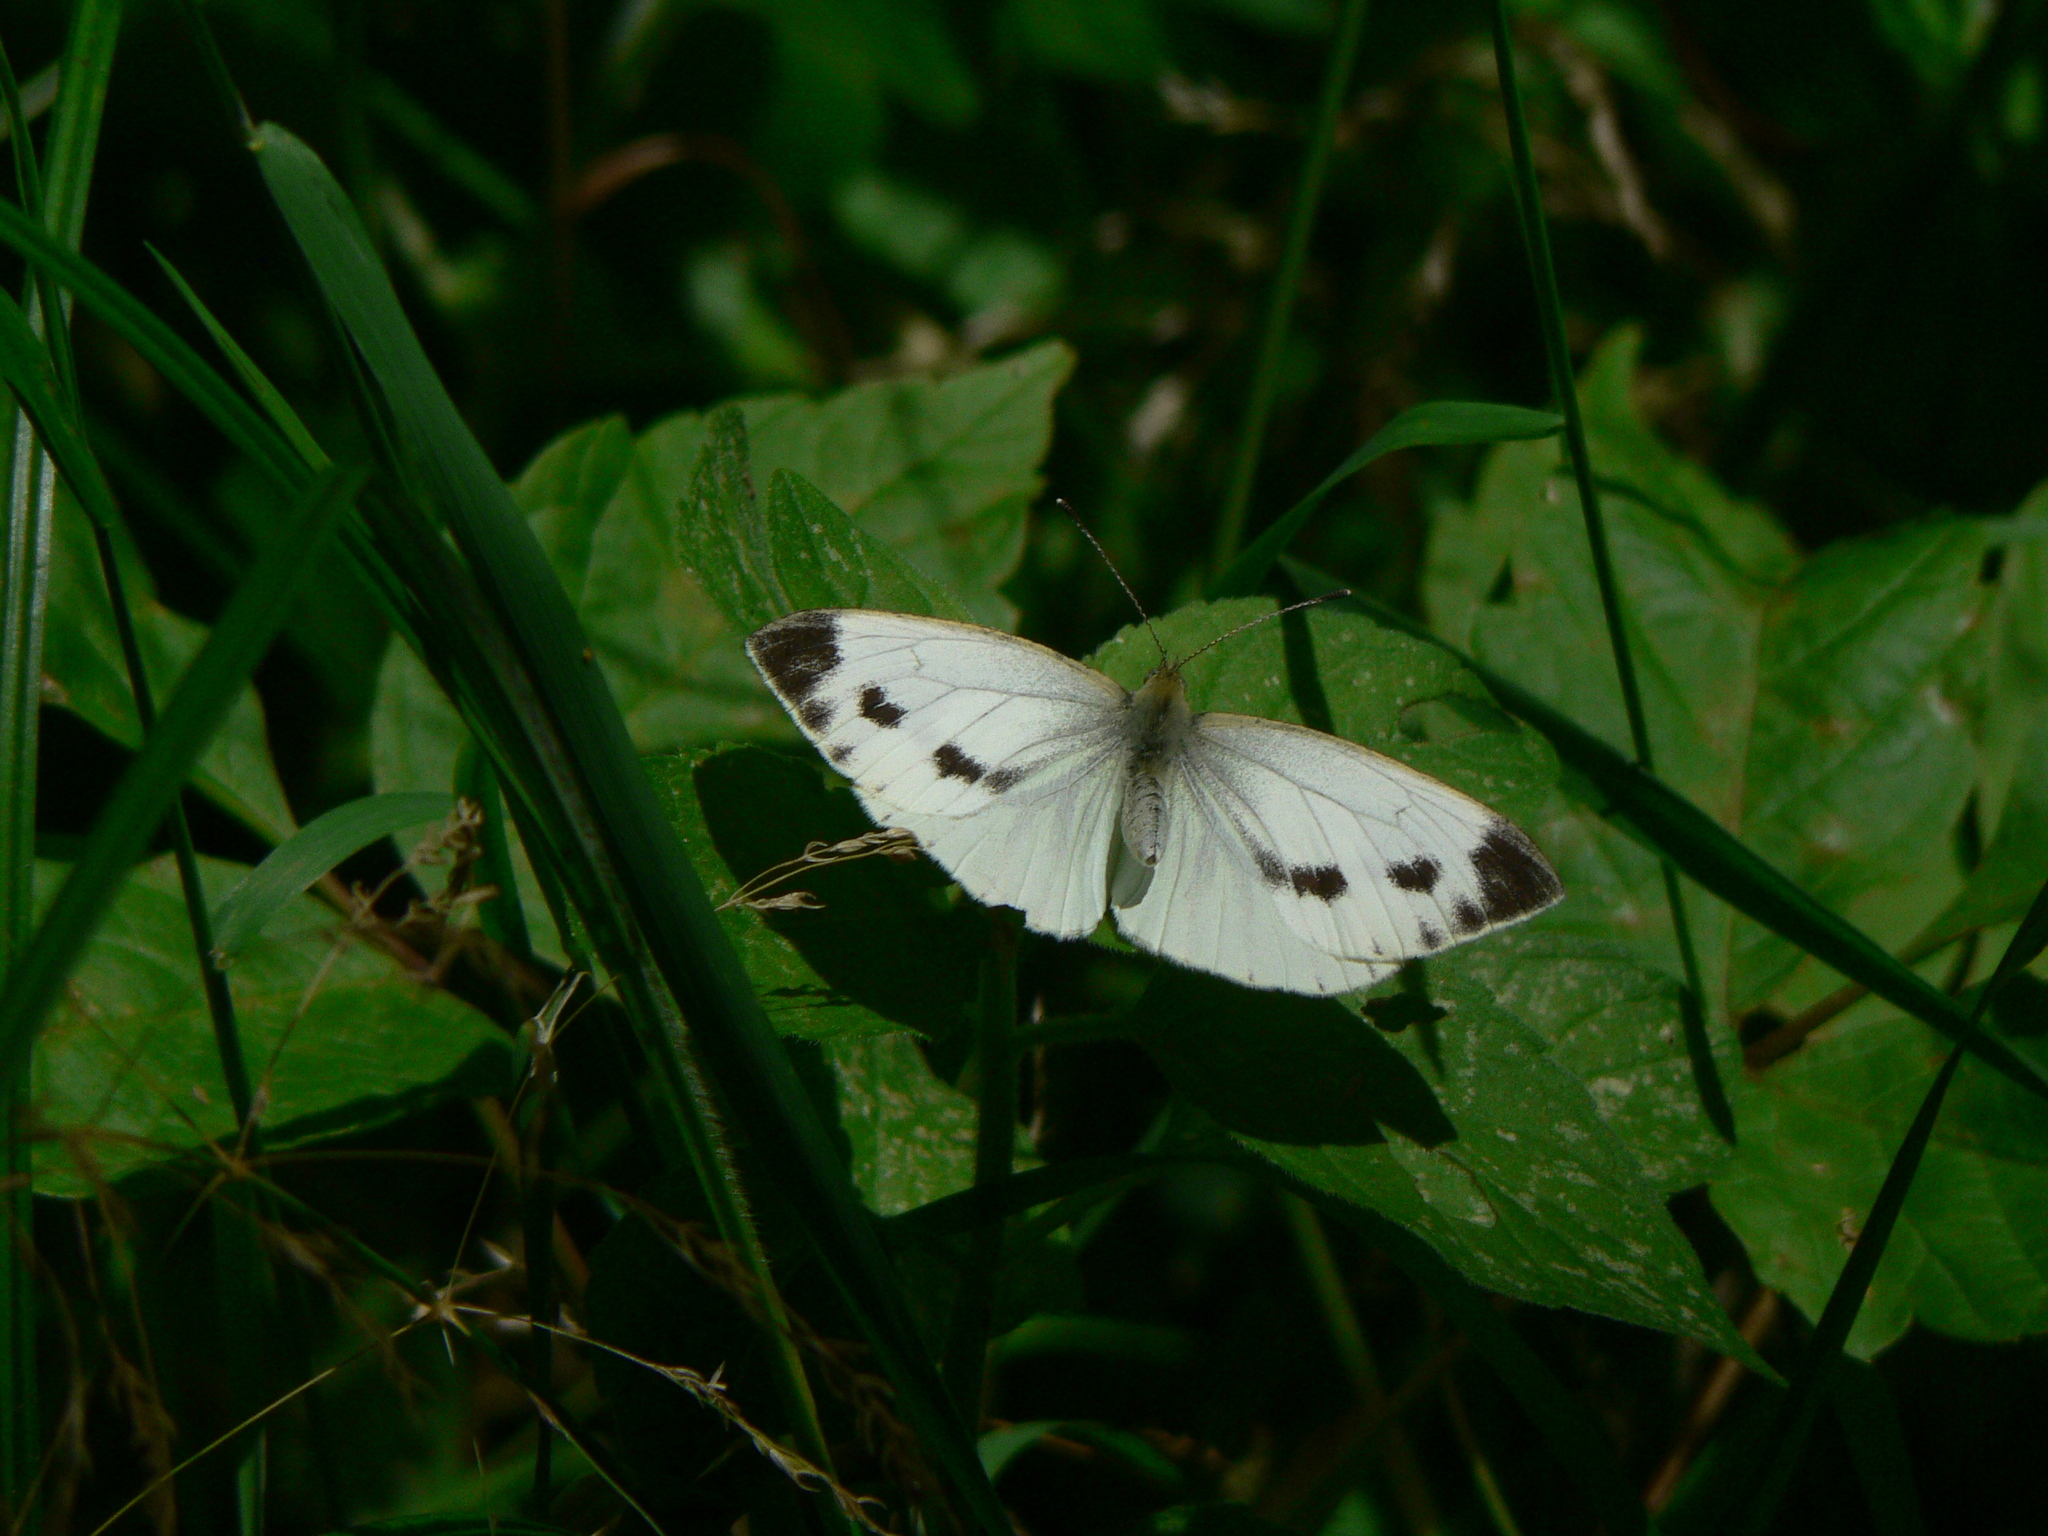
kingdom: Animalia
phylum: Arthropoda
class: Insecta
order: Lepidoptera
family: Pieridae
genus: Pieris
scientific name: Pieris napi
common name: Green-veined white
